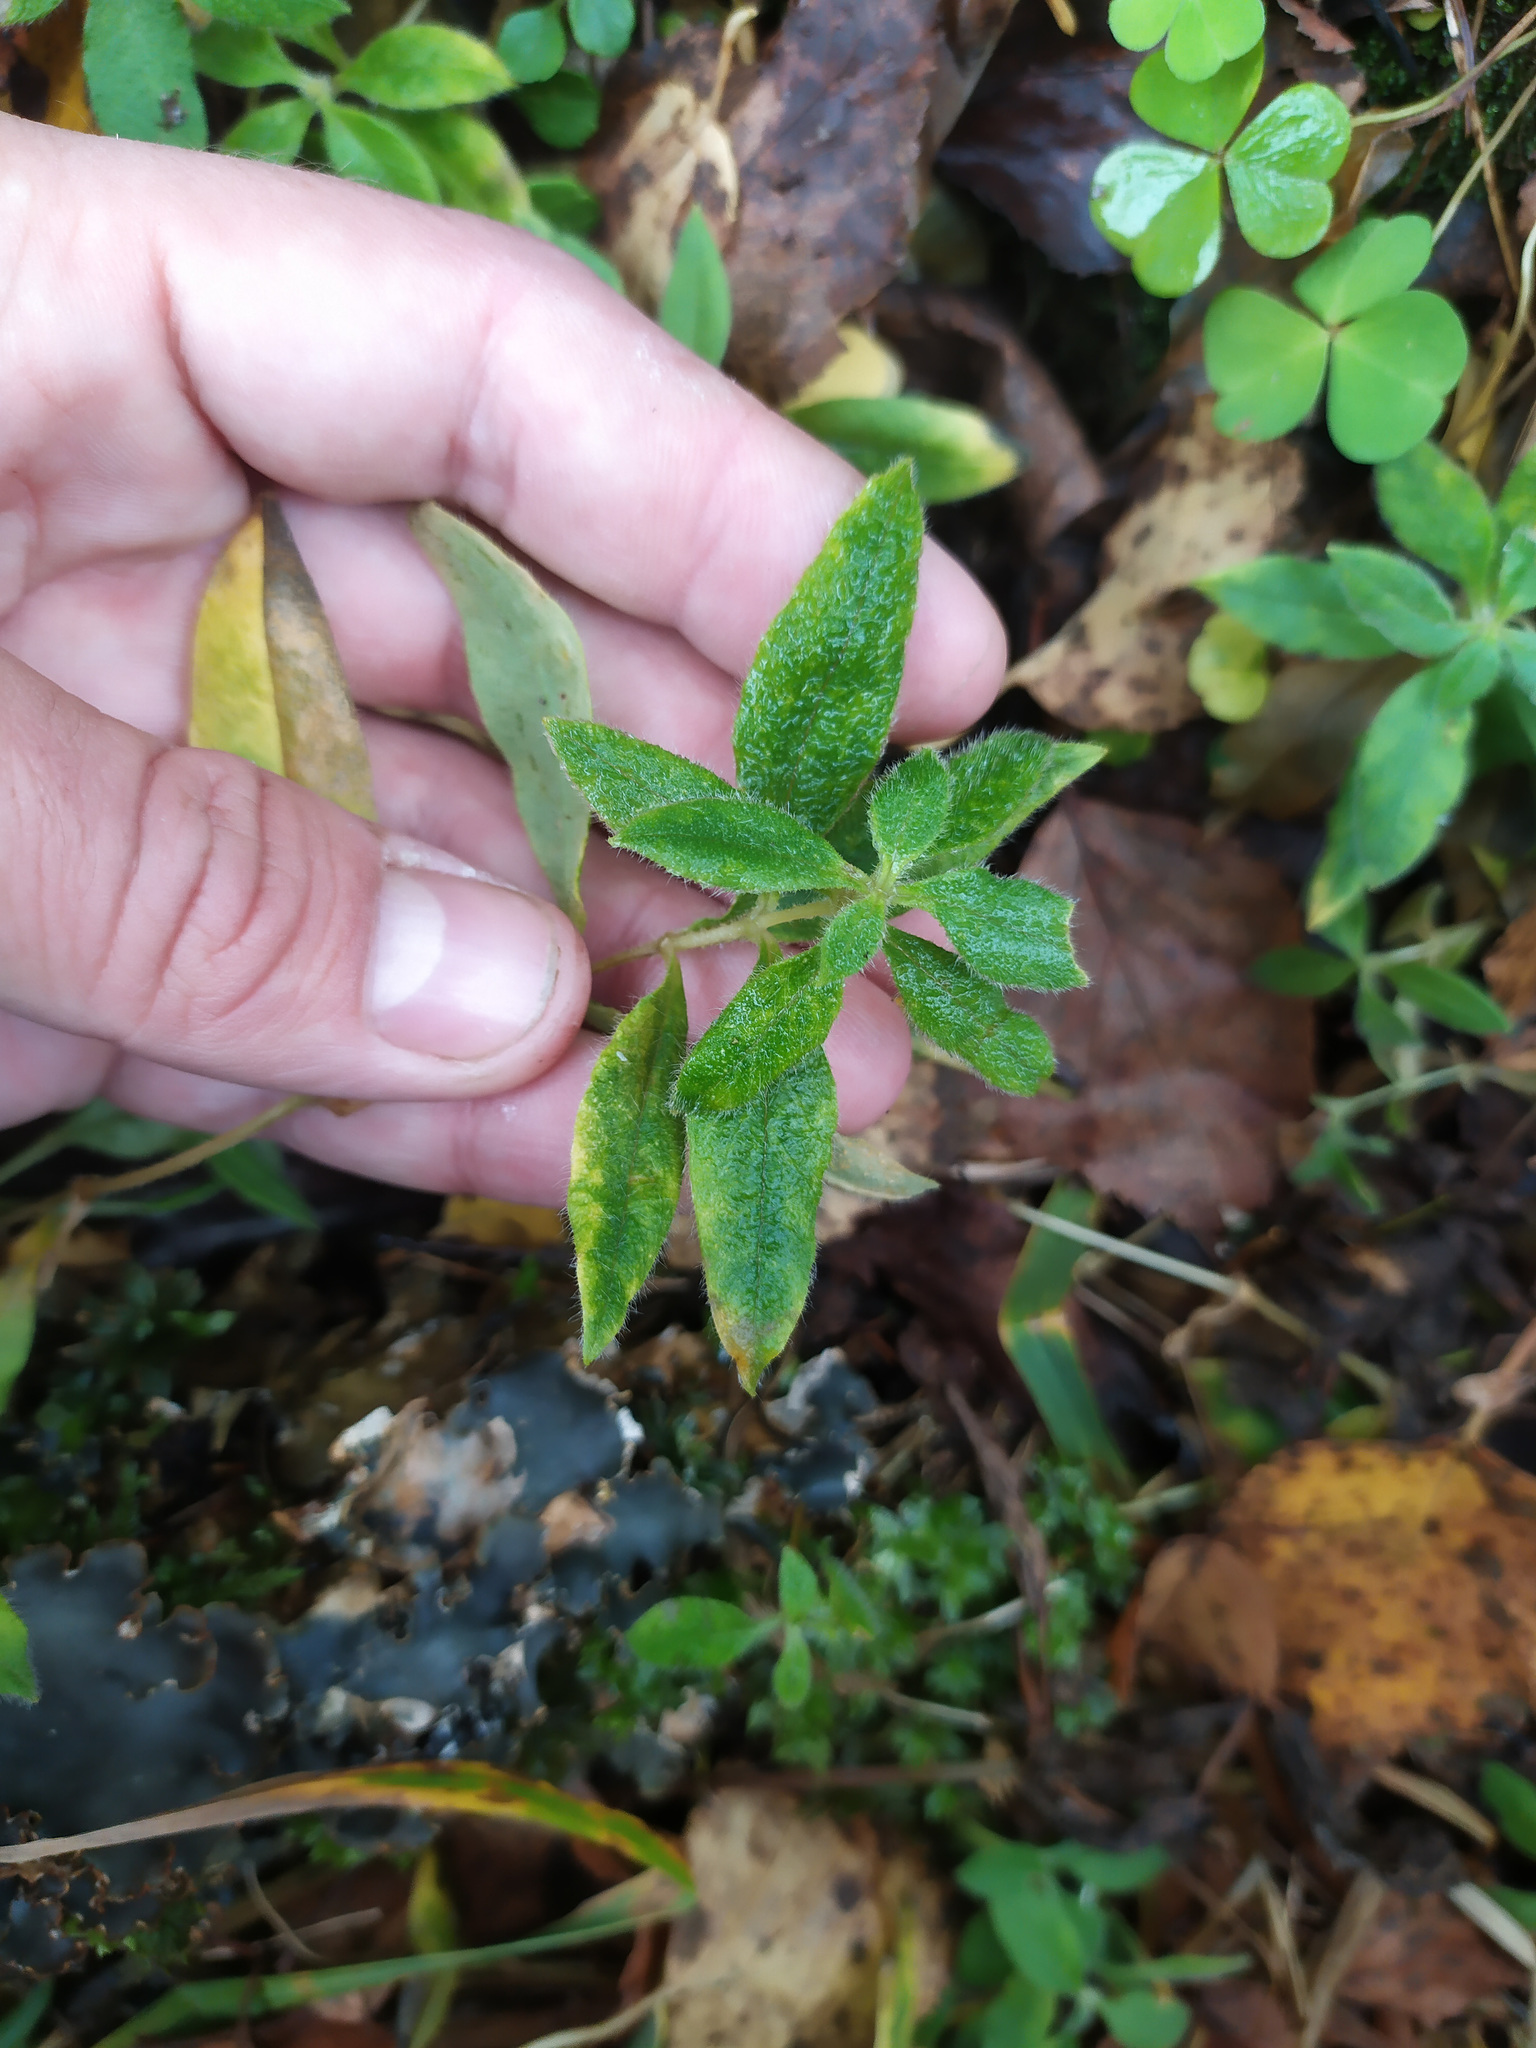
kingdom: Plantae
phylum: Tracheophyta
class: Magnoliopsida
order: Caryophyllales
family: Caryophyllaceae
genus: Cerastium
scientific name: Cerastium pauciflorum
